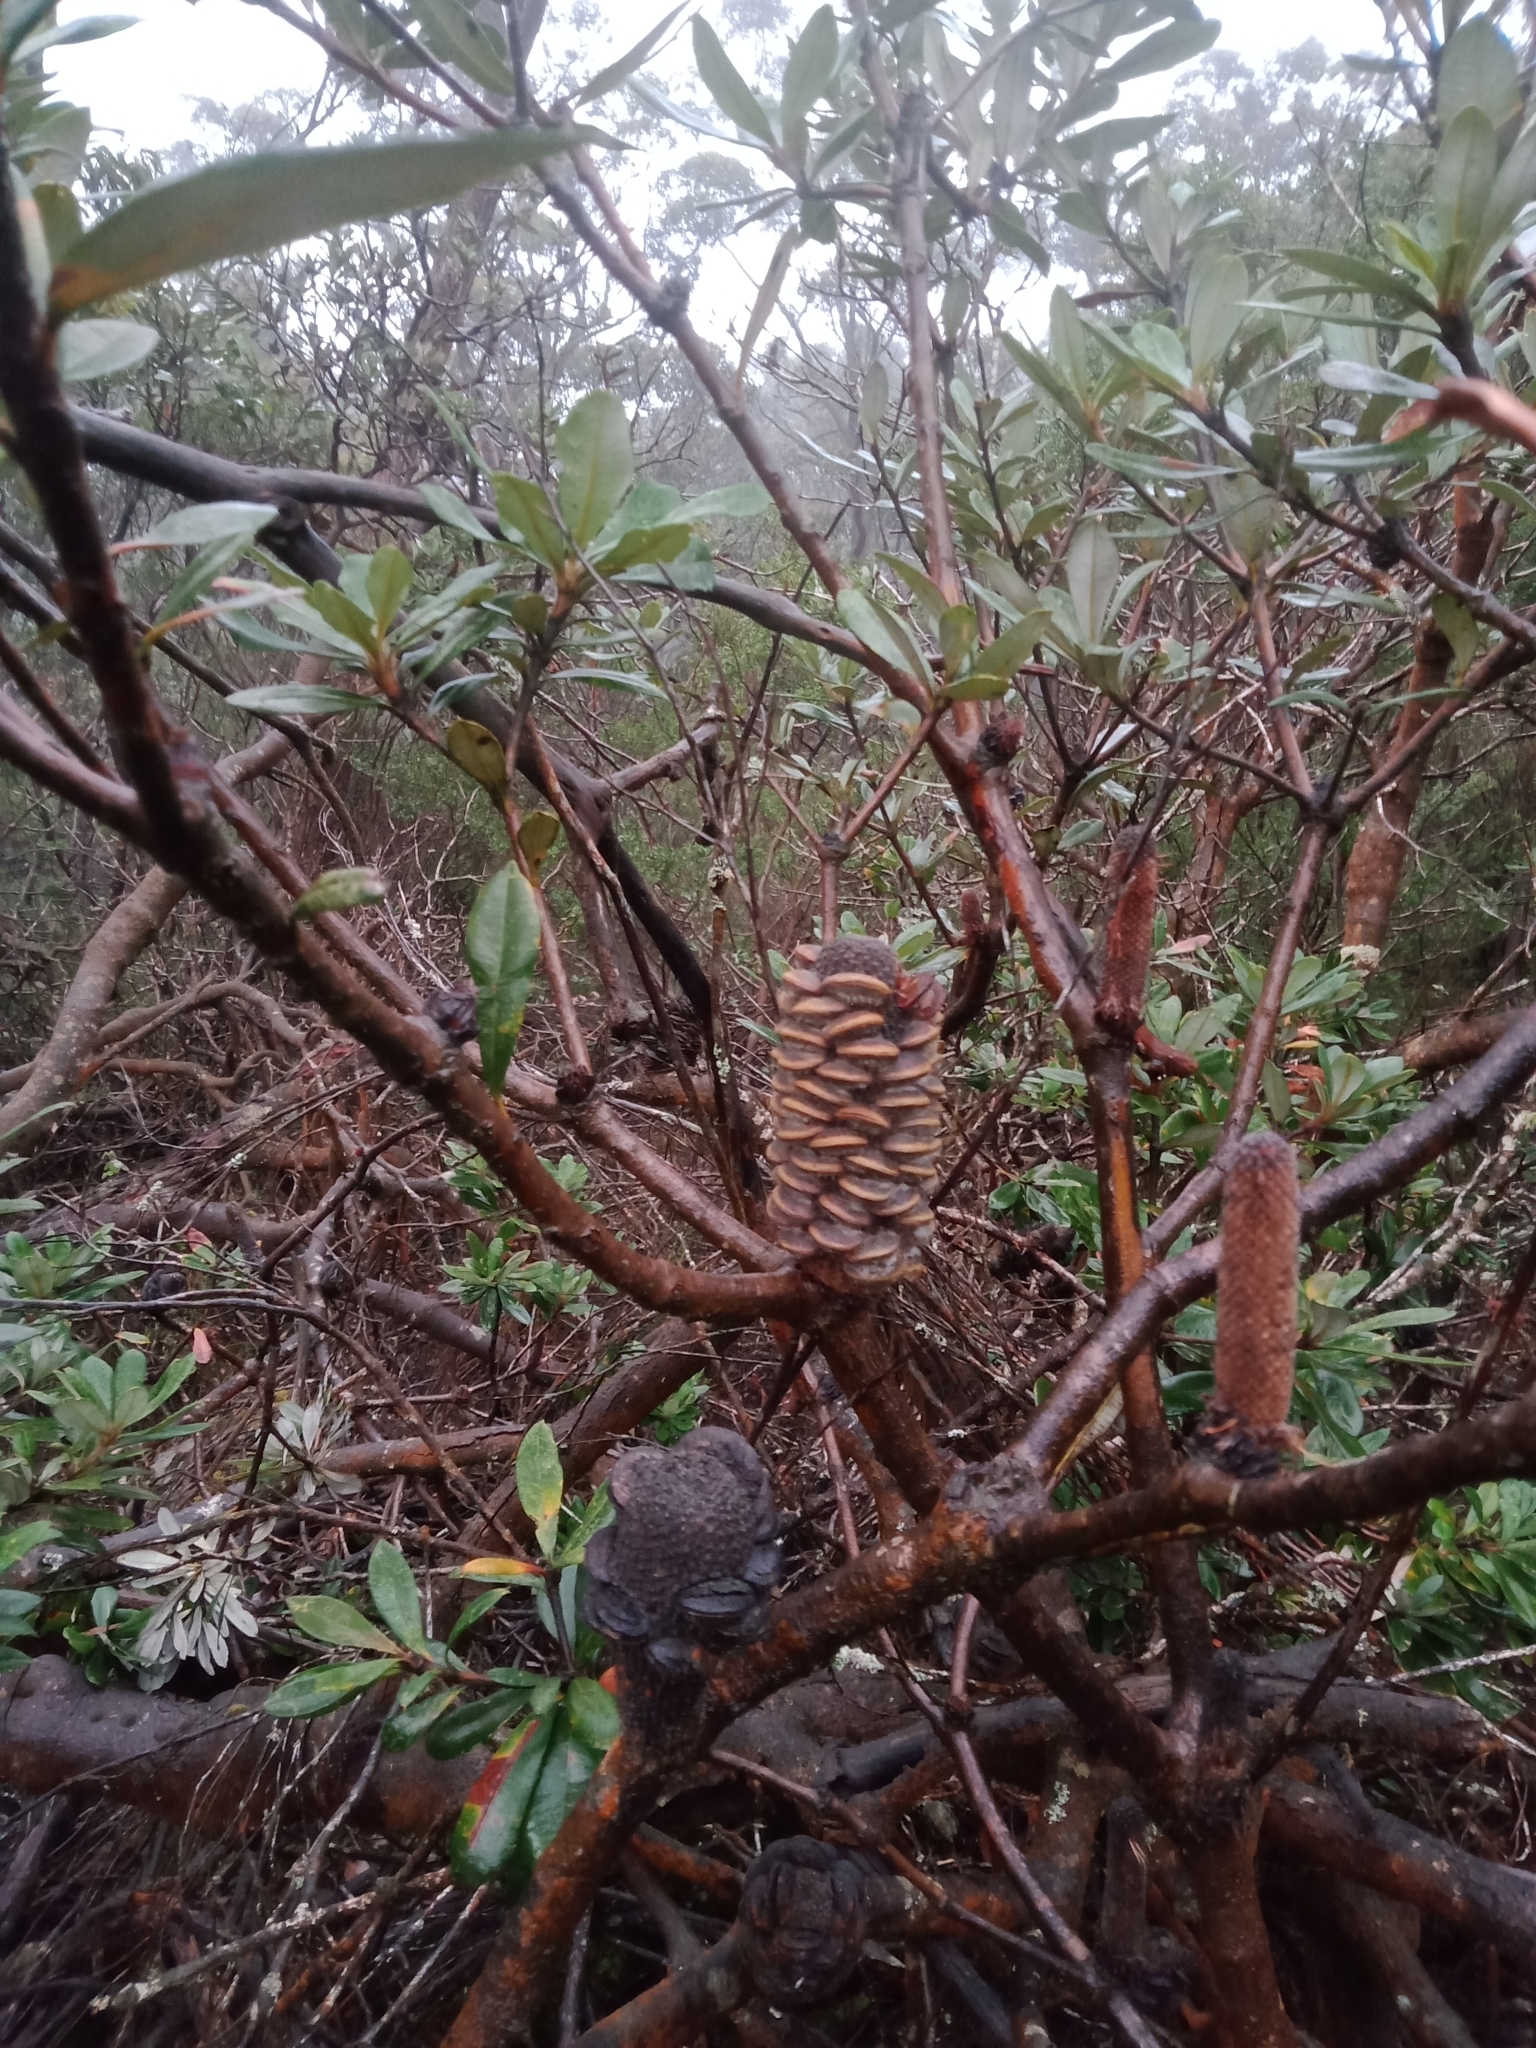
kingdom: Plantae
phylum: Tracheophyta
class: Magnoliopsida
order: Proteales
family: Proteaceae
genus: Banksia
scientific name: Banksia saxicola
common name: Grampians banksia
